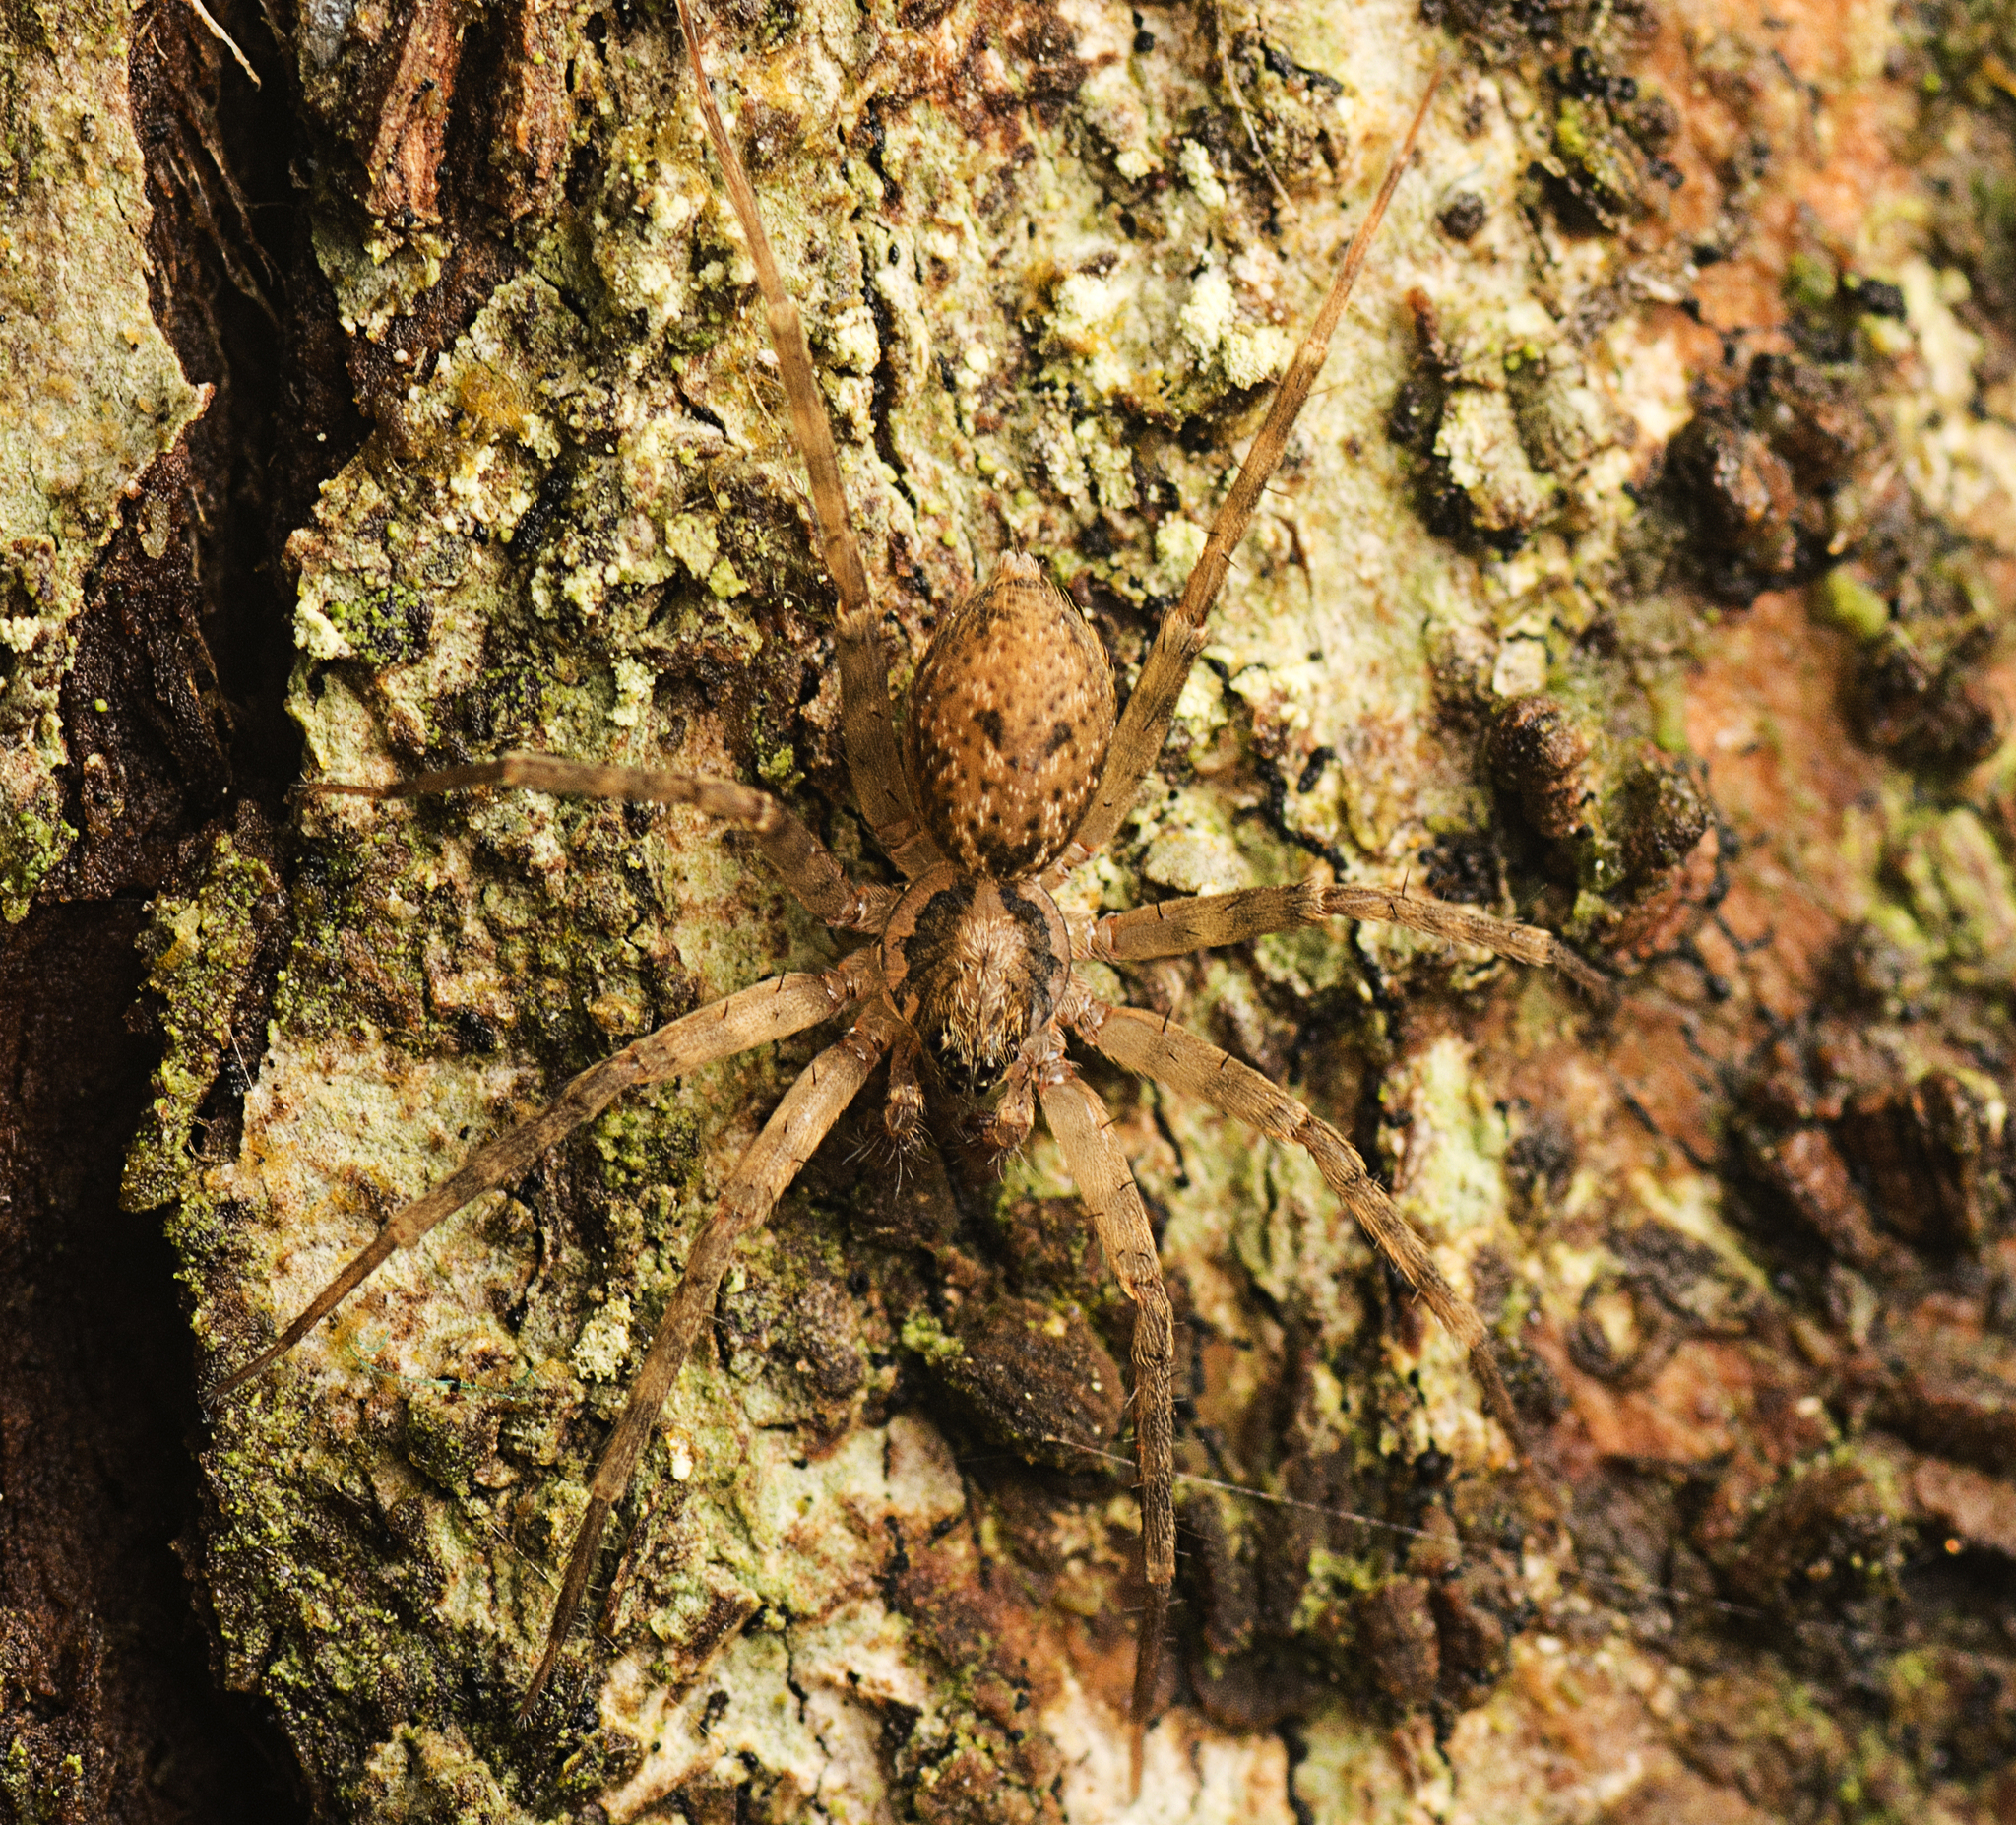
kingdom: Animalia
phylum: Arthropoda
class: Arachnida
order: Araneae
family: Toxopidae
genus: Toxopsoides
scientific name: Toxopsoides erici
